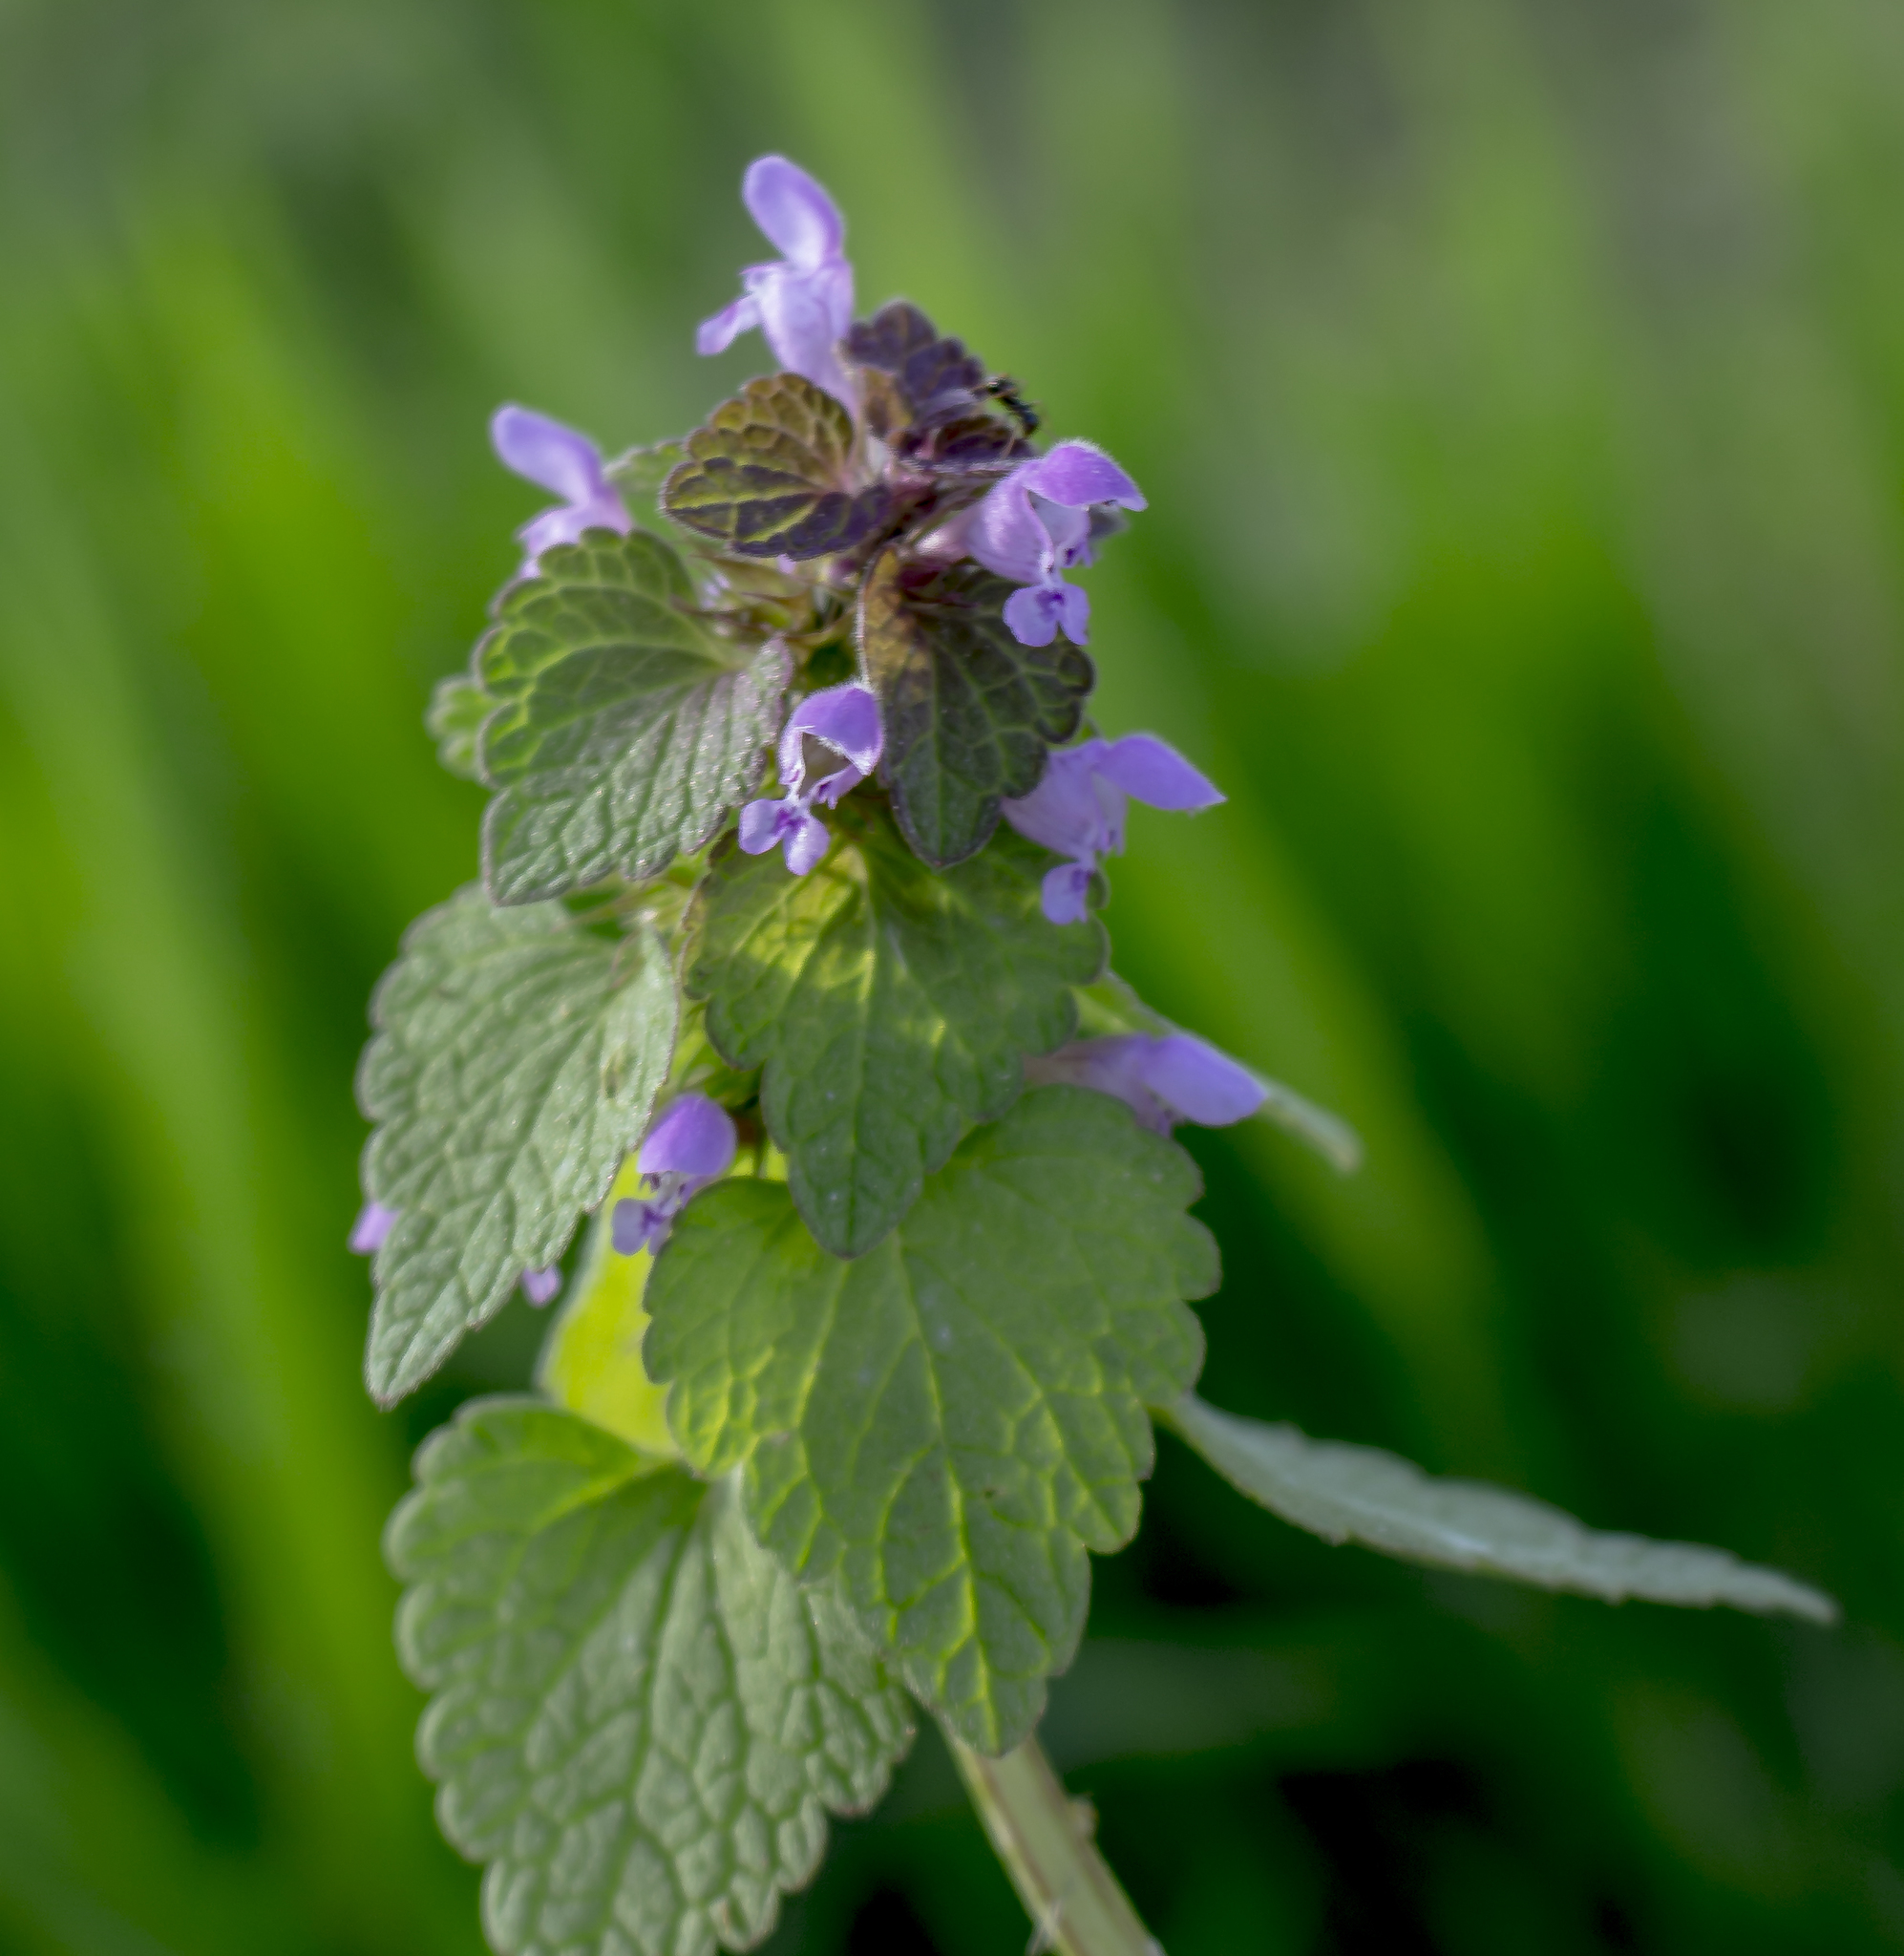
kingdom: Plantae
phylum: Tracheophyta
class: Magnoliopsida
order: Lamiales
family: Lamiaceae
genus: Lamium
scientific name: Lamium purpureum
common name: Red dead-nettle
